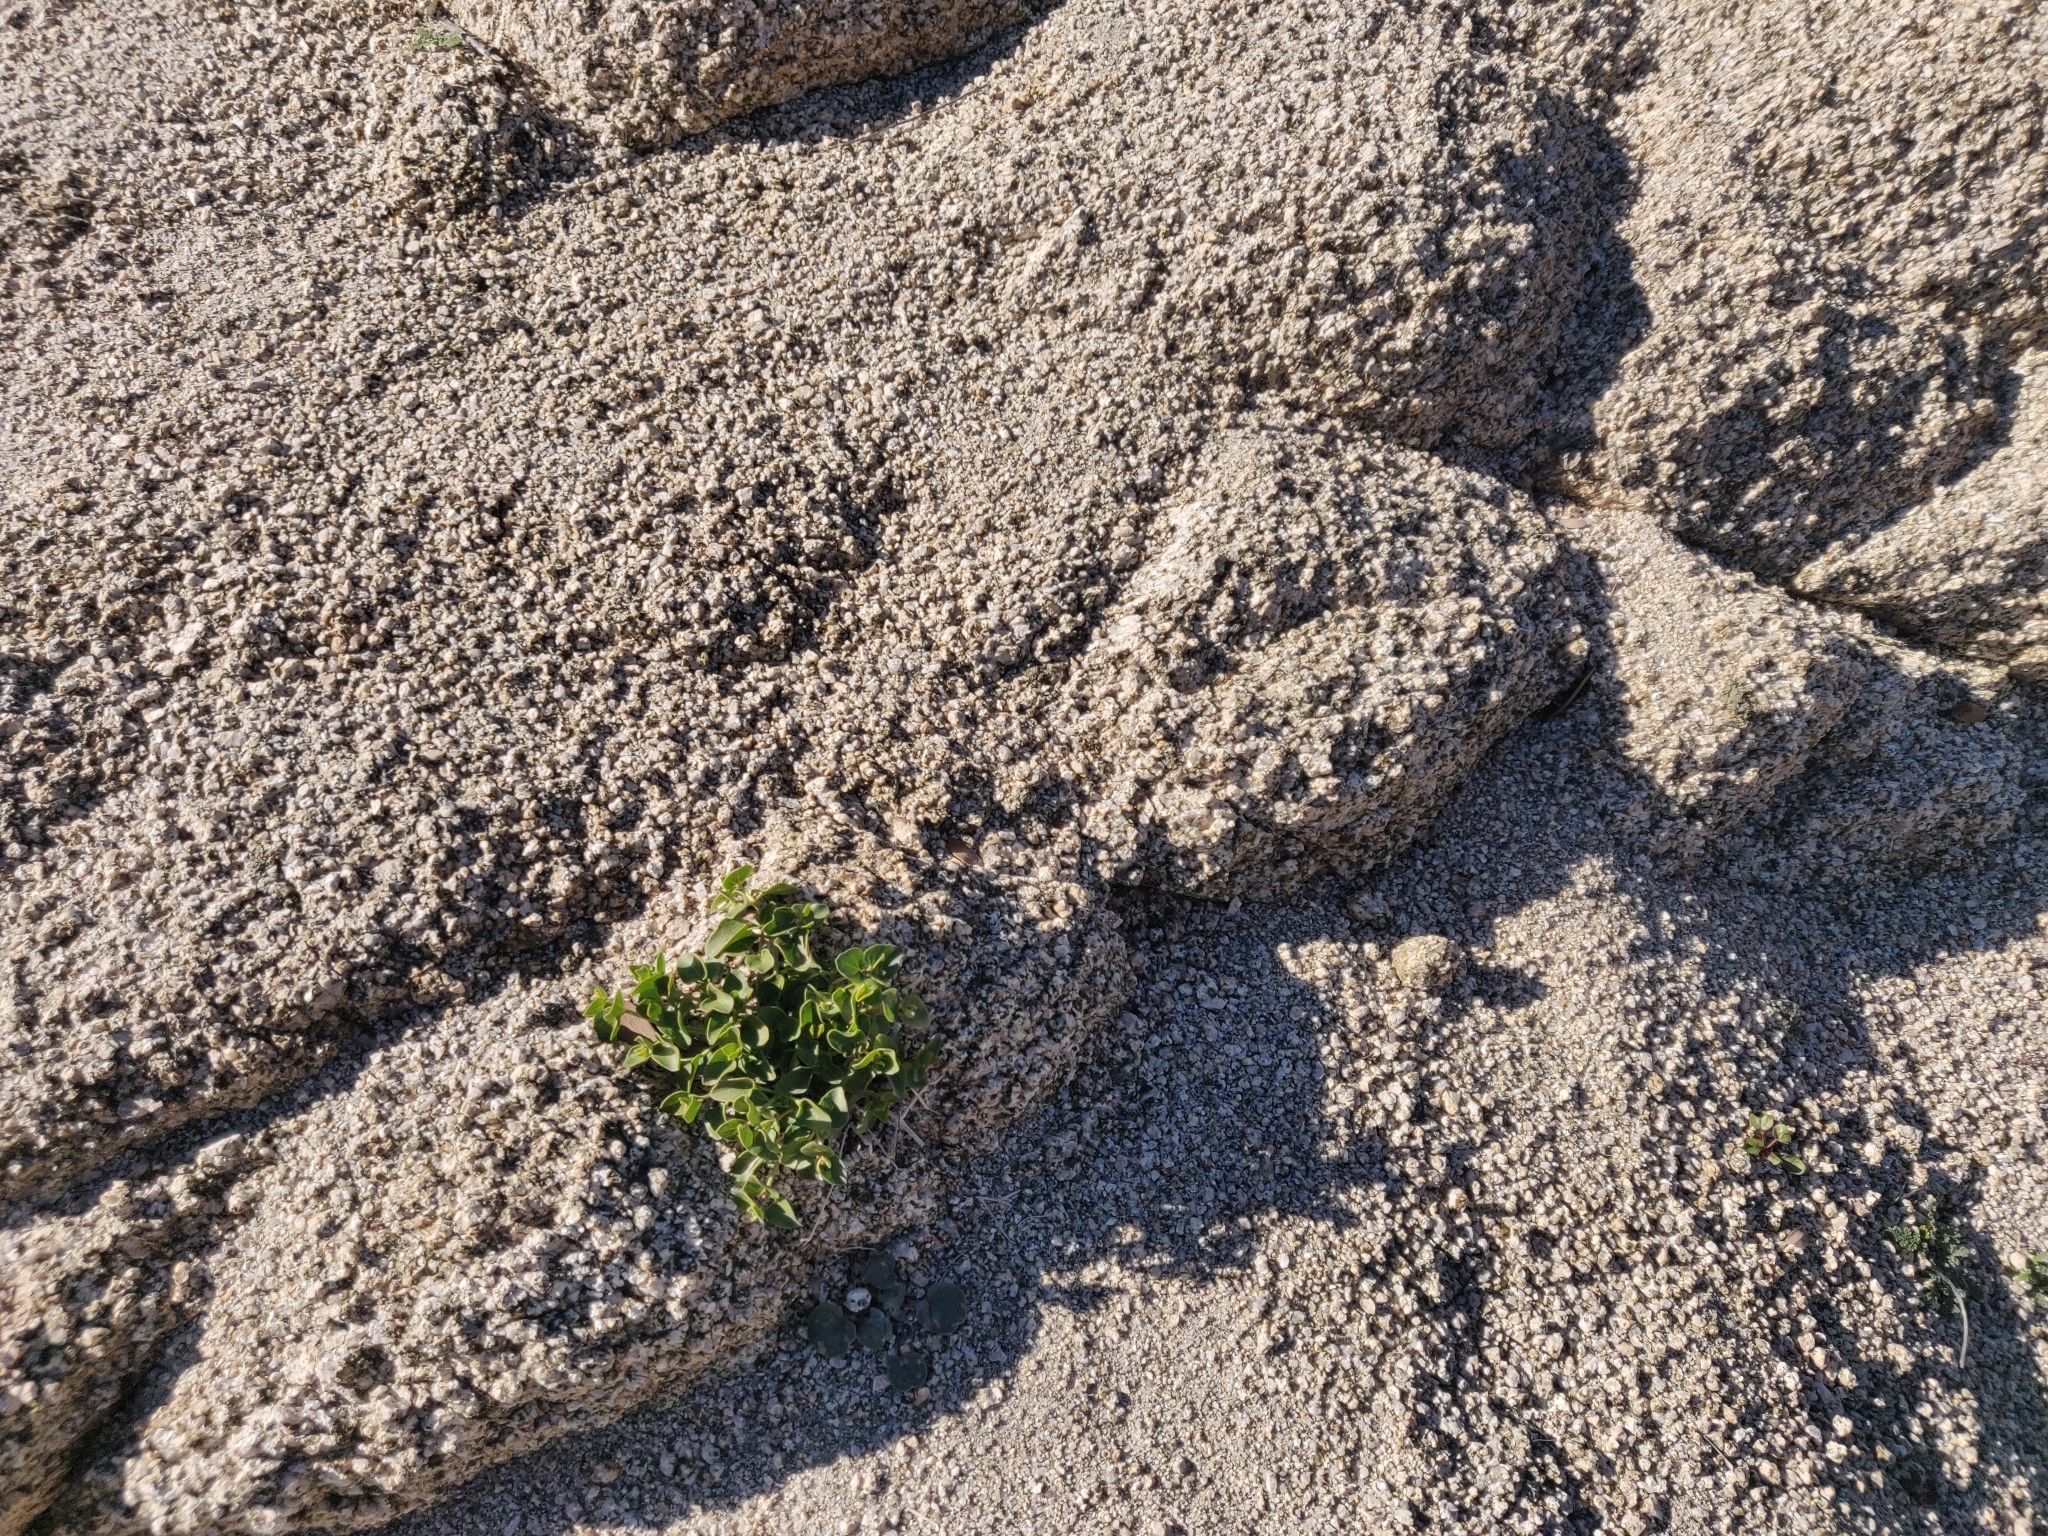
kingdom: Plantae
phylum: Tracheophyta
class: Magnoliopsida
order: Caryophyllales
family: Nyctaginaceae
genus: Mirabilis
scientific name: Mirabilis laevis
